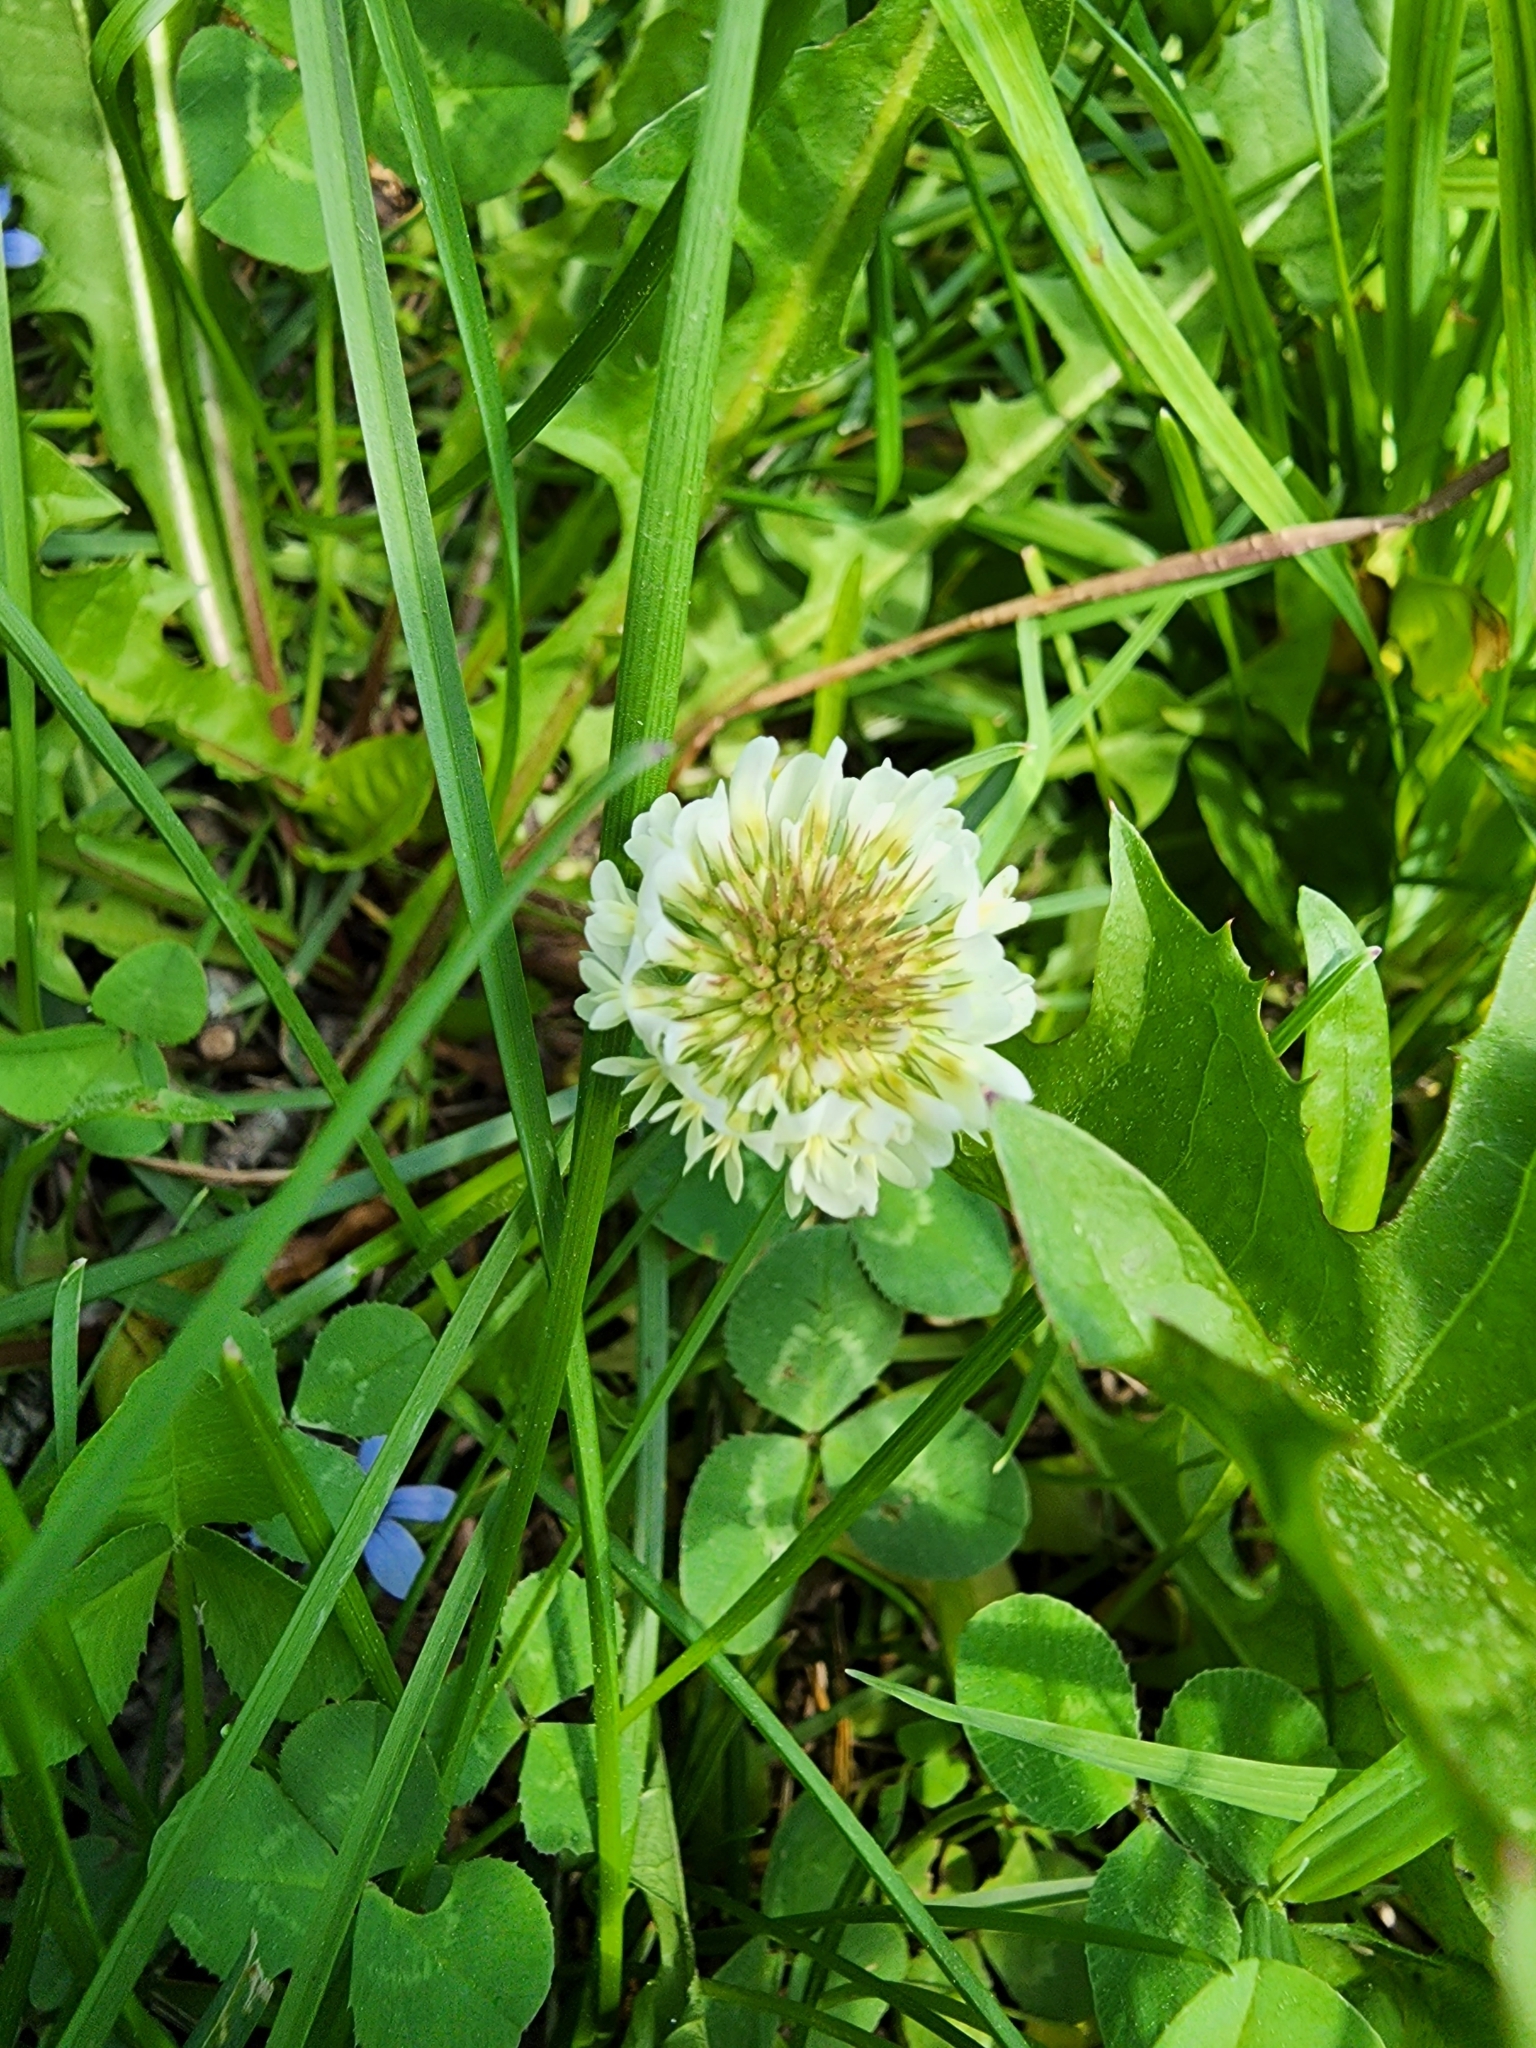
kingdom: Plantae
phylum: Tracheophyta
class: Magnoliopsida
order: Fabales
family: Fabaceae
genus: Trifolium
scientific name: Trifolium repens
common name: White clover
